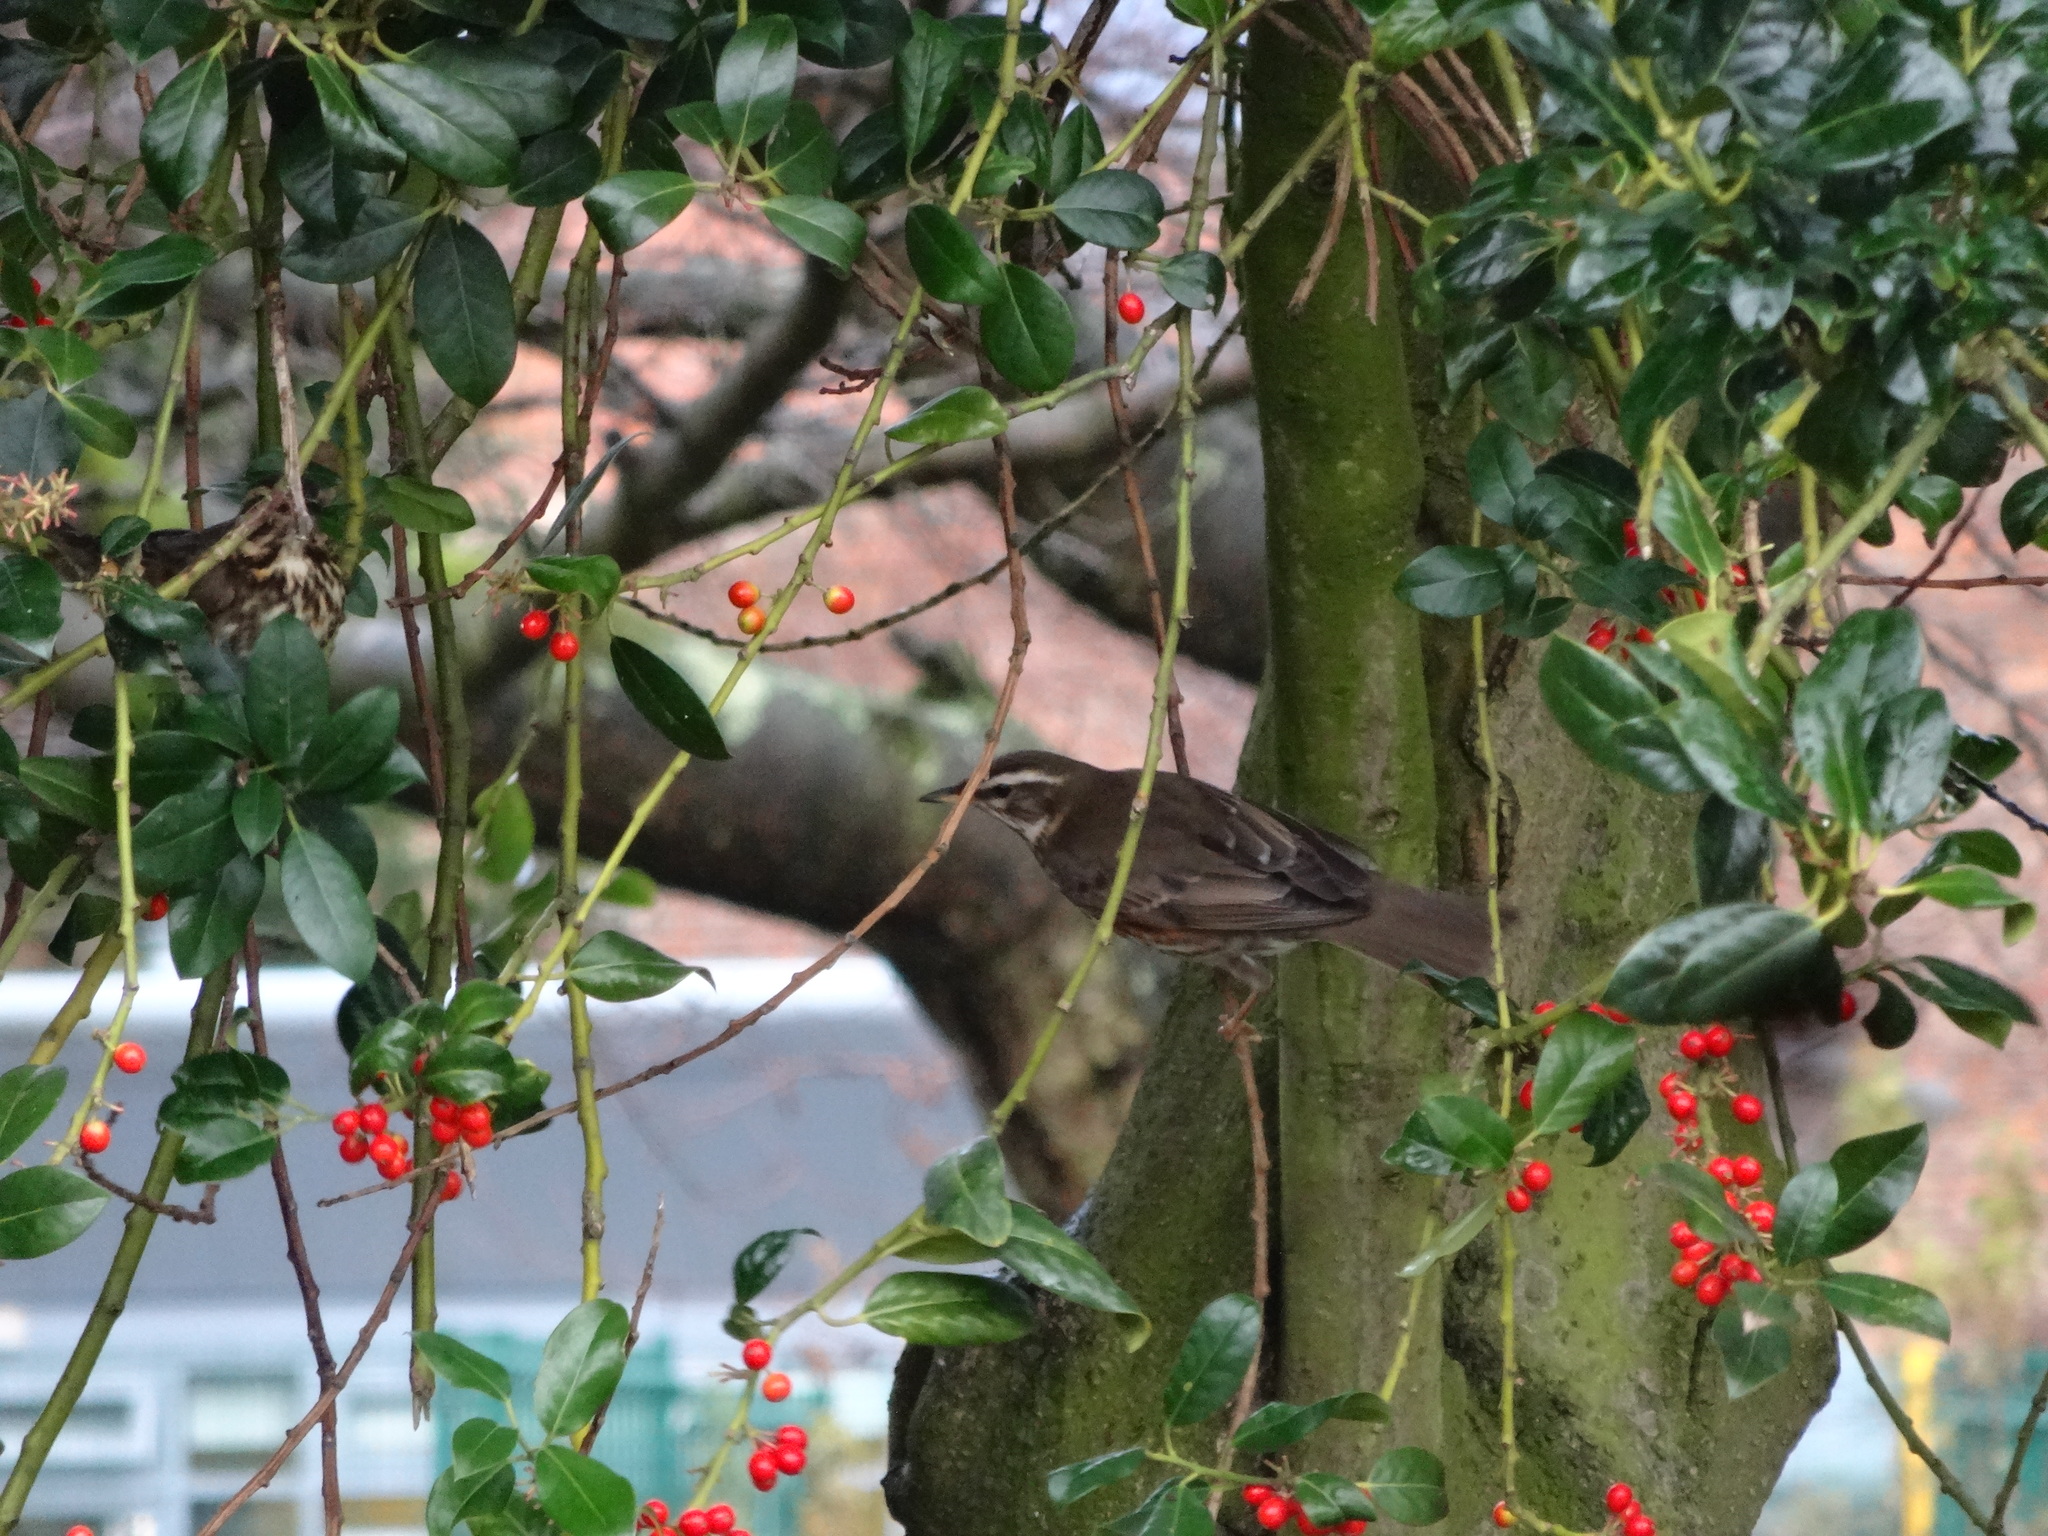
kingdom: Animalia
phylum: Chordata
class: Aves
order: Passeriformes
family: Turdidae
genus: Turdus
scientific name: Turdus iliacus
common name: Redwing
